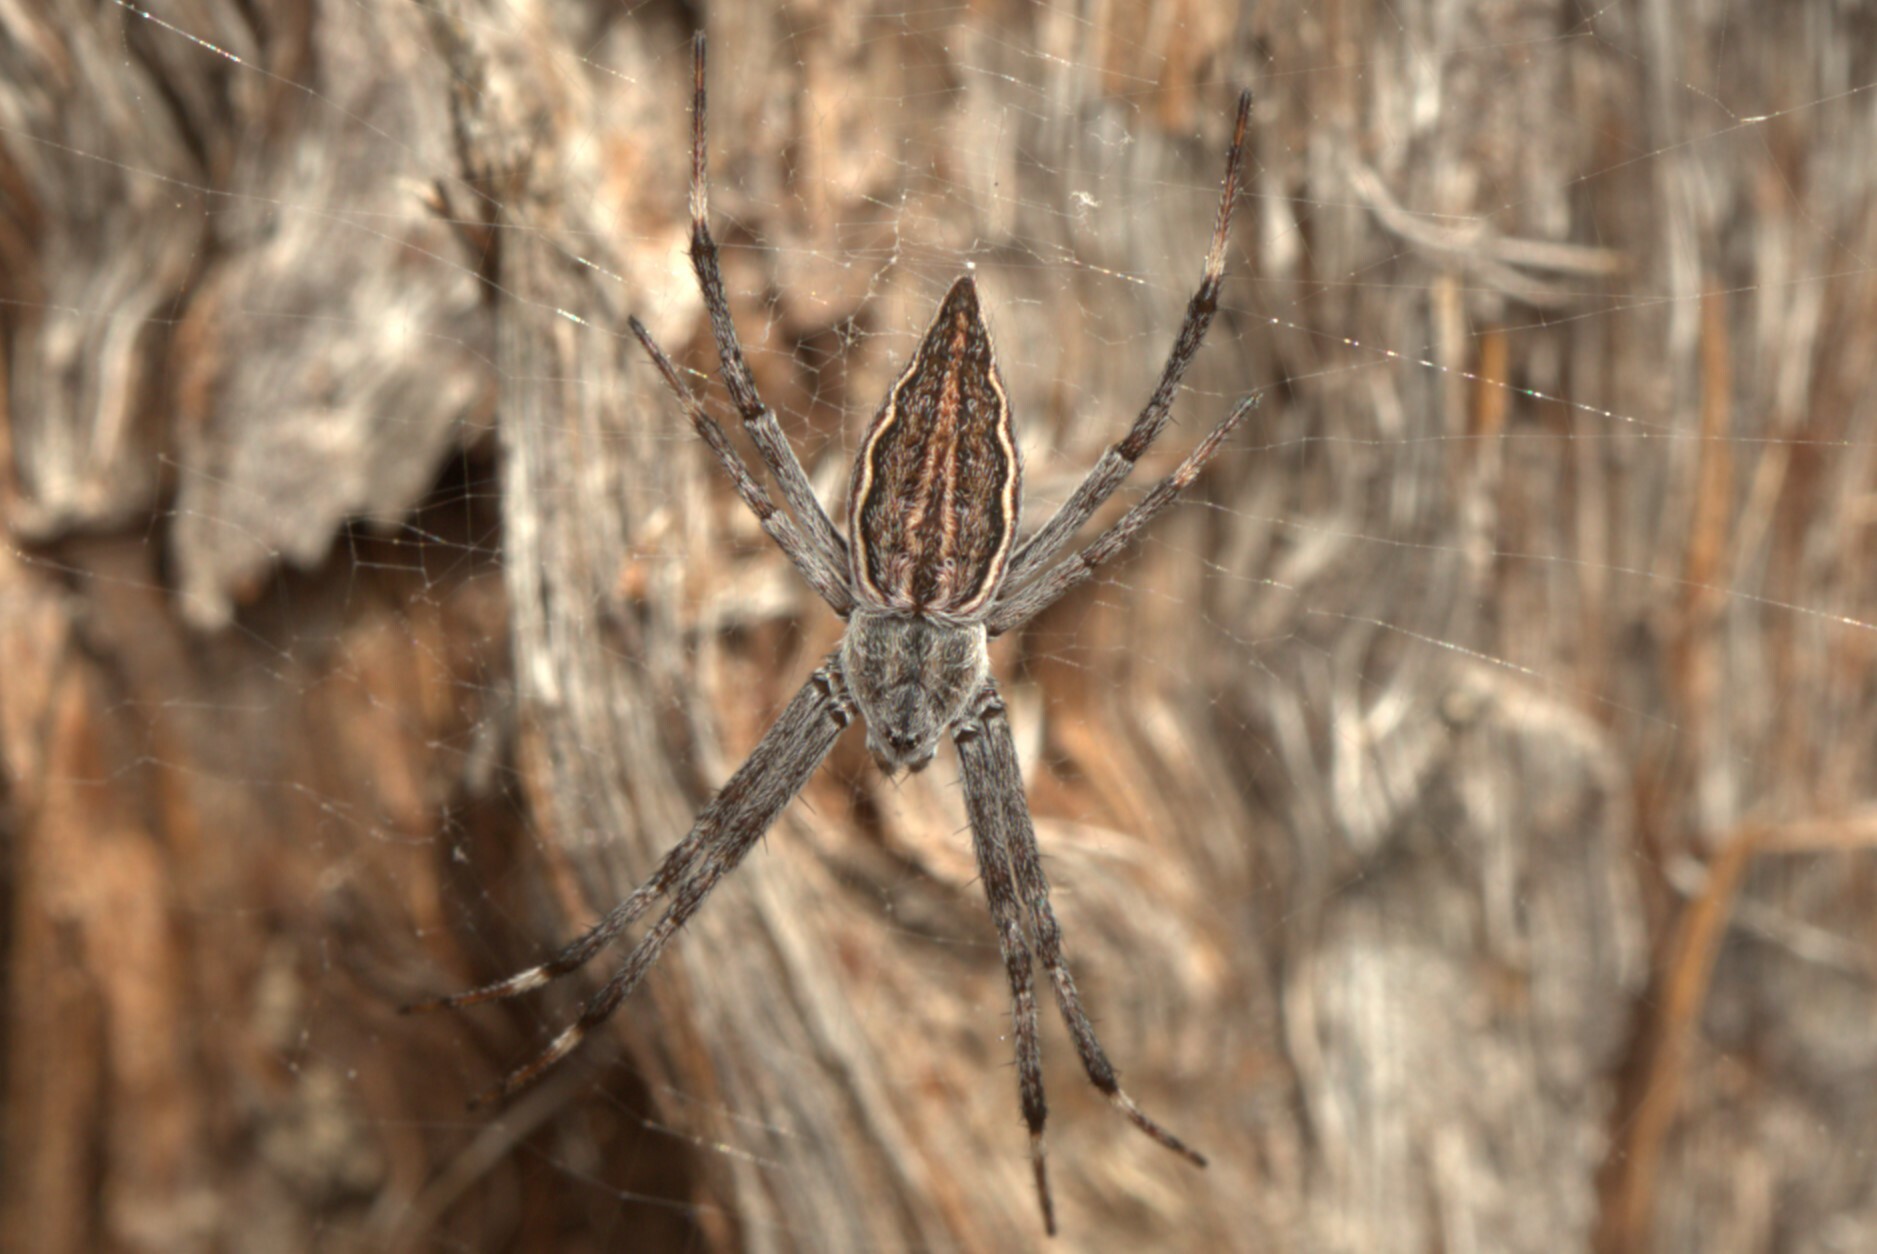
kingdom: Animalia
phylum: Arthropoda
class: Arachnida
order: Araneae
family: Araneidae
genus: Argiope
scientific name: Argiope ocyaloides
